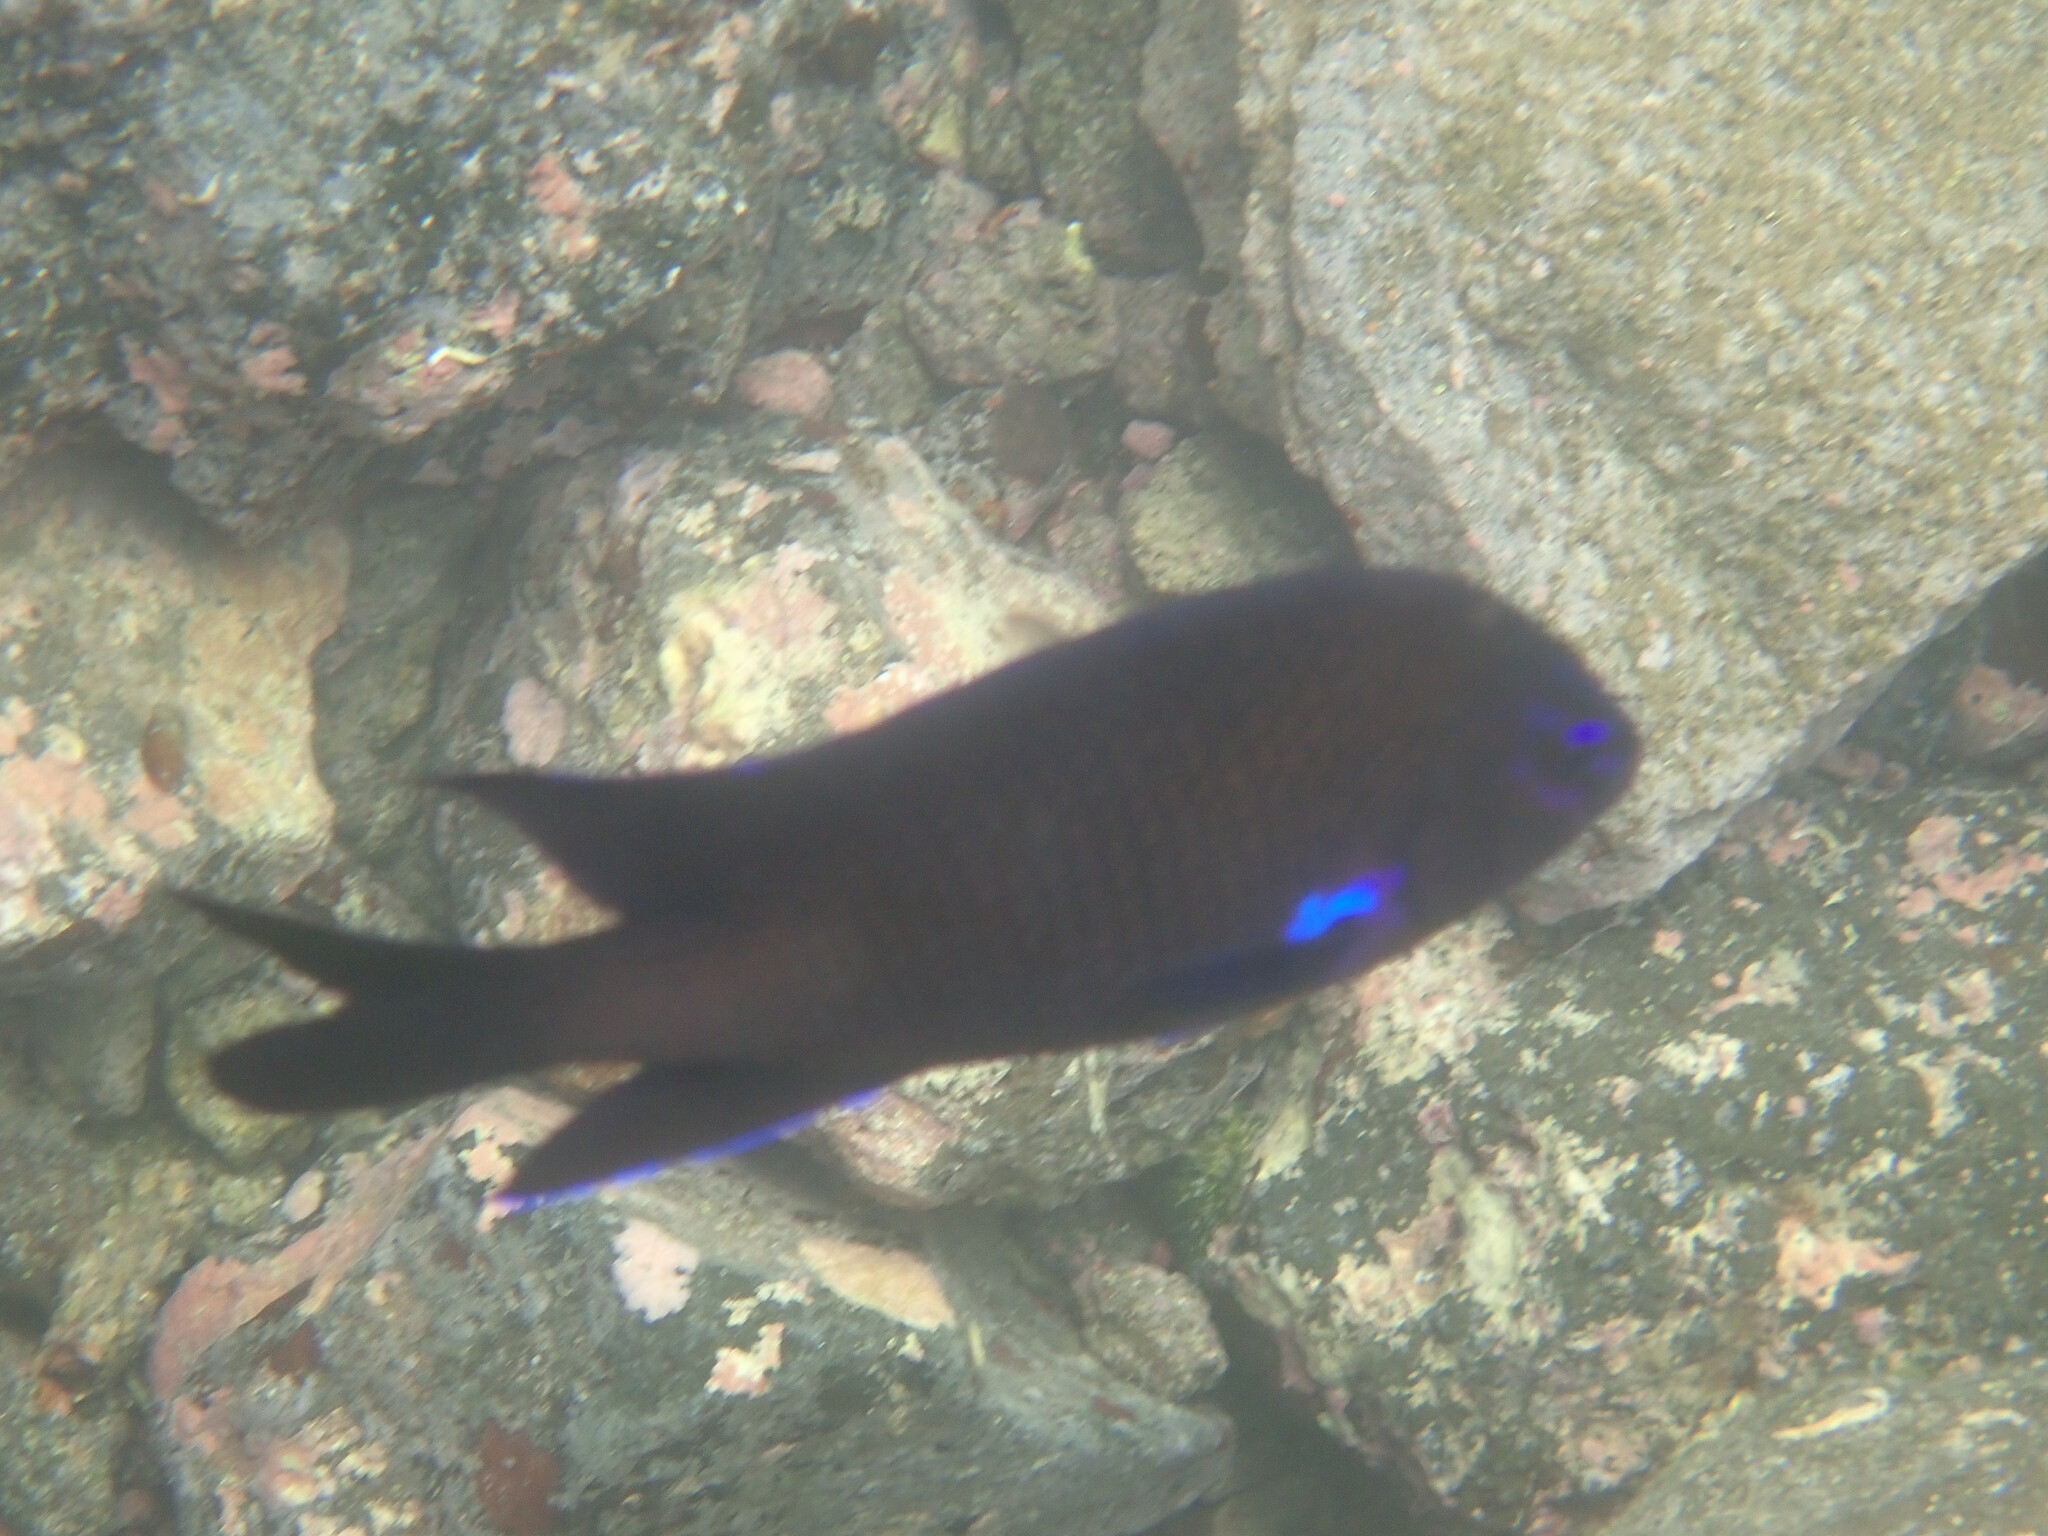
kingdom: Animalia
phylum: Chordata
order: Perciformes
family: Pomacentridae
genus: Similiparma
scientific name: Similiparma lurida
